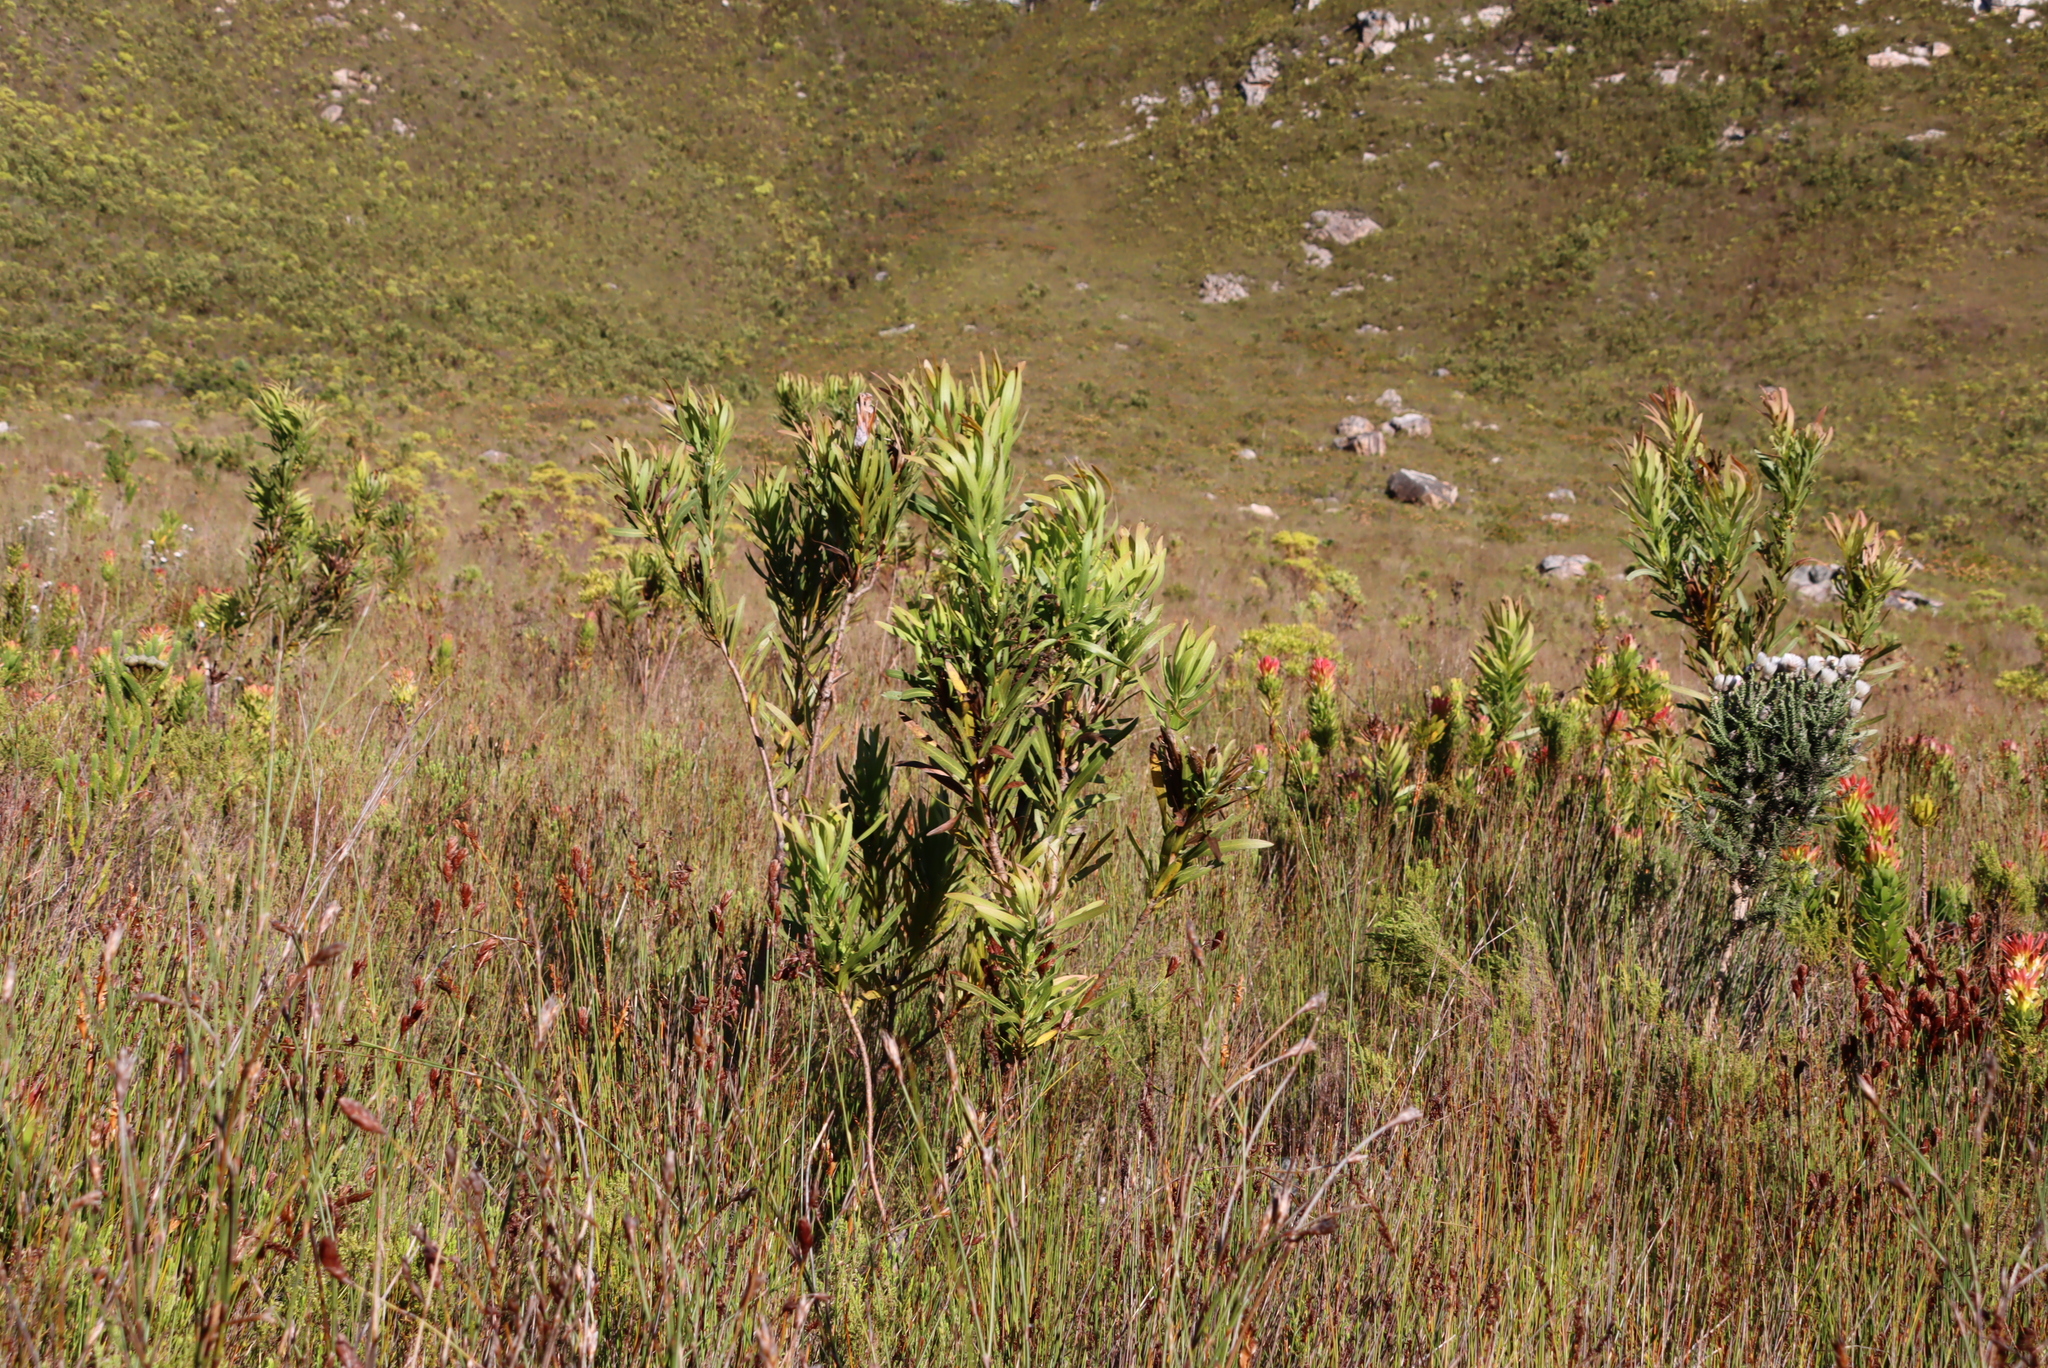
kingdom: Plantae
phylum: Tracheophyta
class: Magnoliopsida
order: Proteales
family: Proteaceae
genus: Protea
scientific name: Protea lepidocarpodendron
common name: Black-bearded protea
